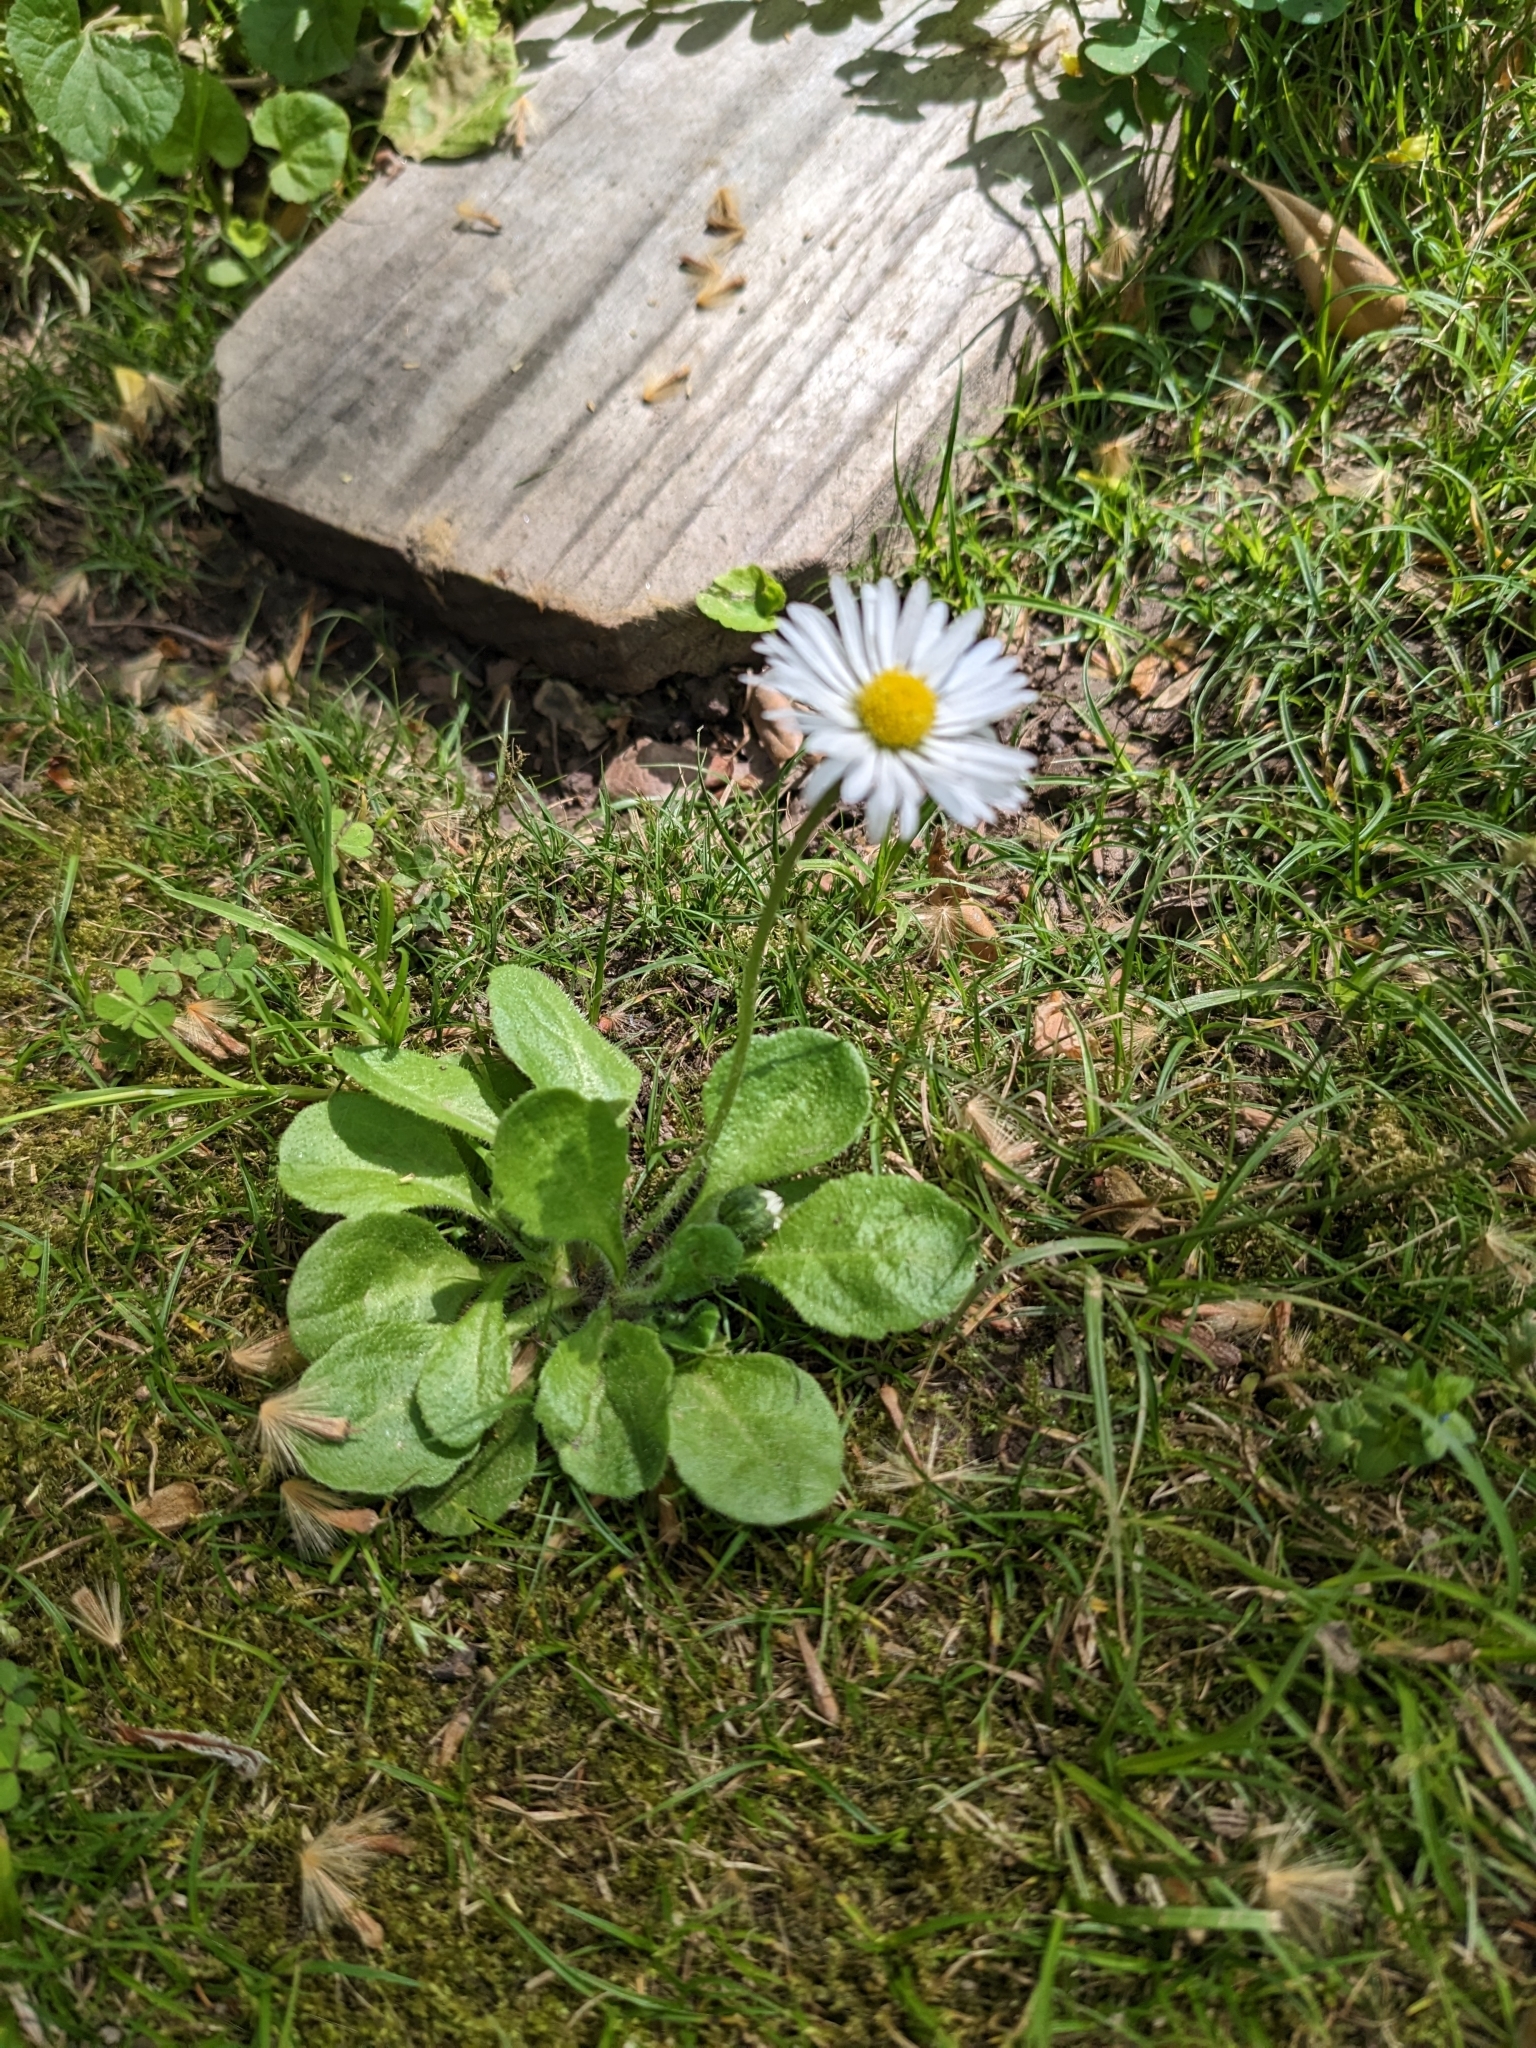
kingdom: Plantae
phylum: Tracheophyta
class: Magnoliopsida
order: Asterales
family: Asteraceae
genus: Bellis
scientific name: Bellis perennis
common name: Lawndaisy
